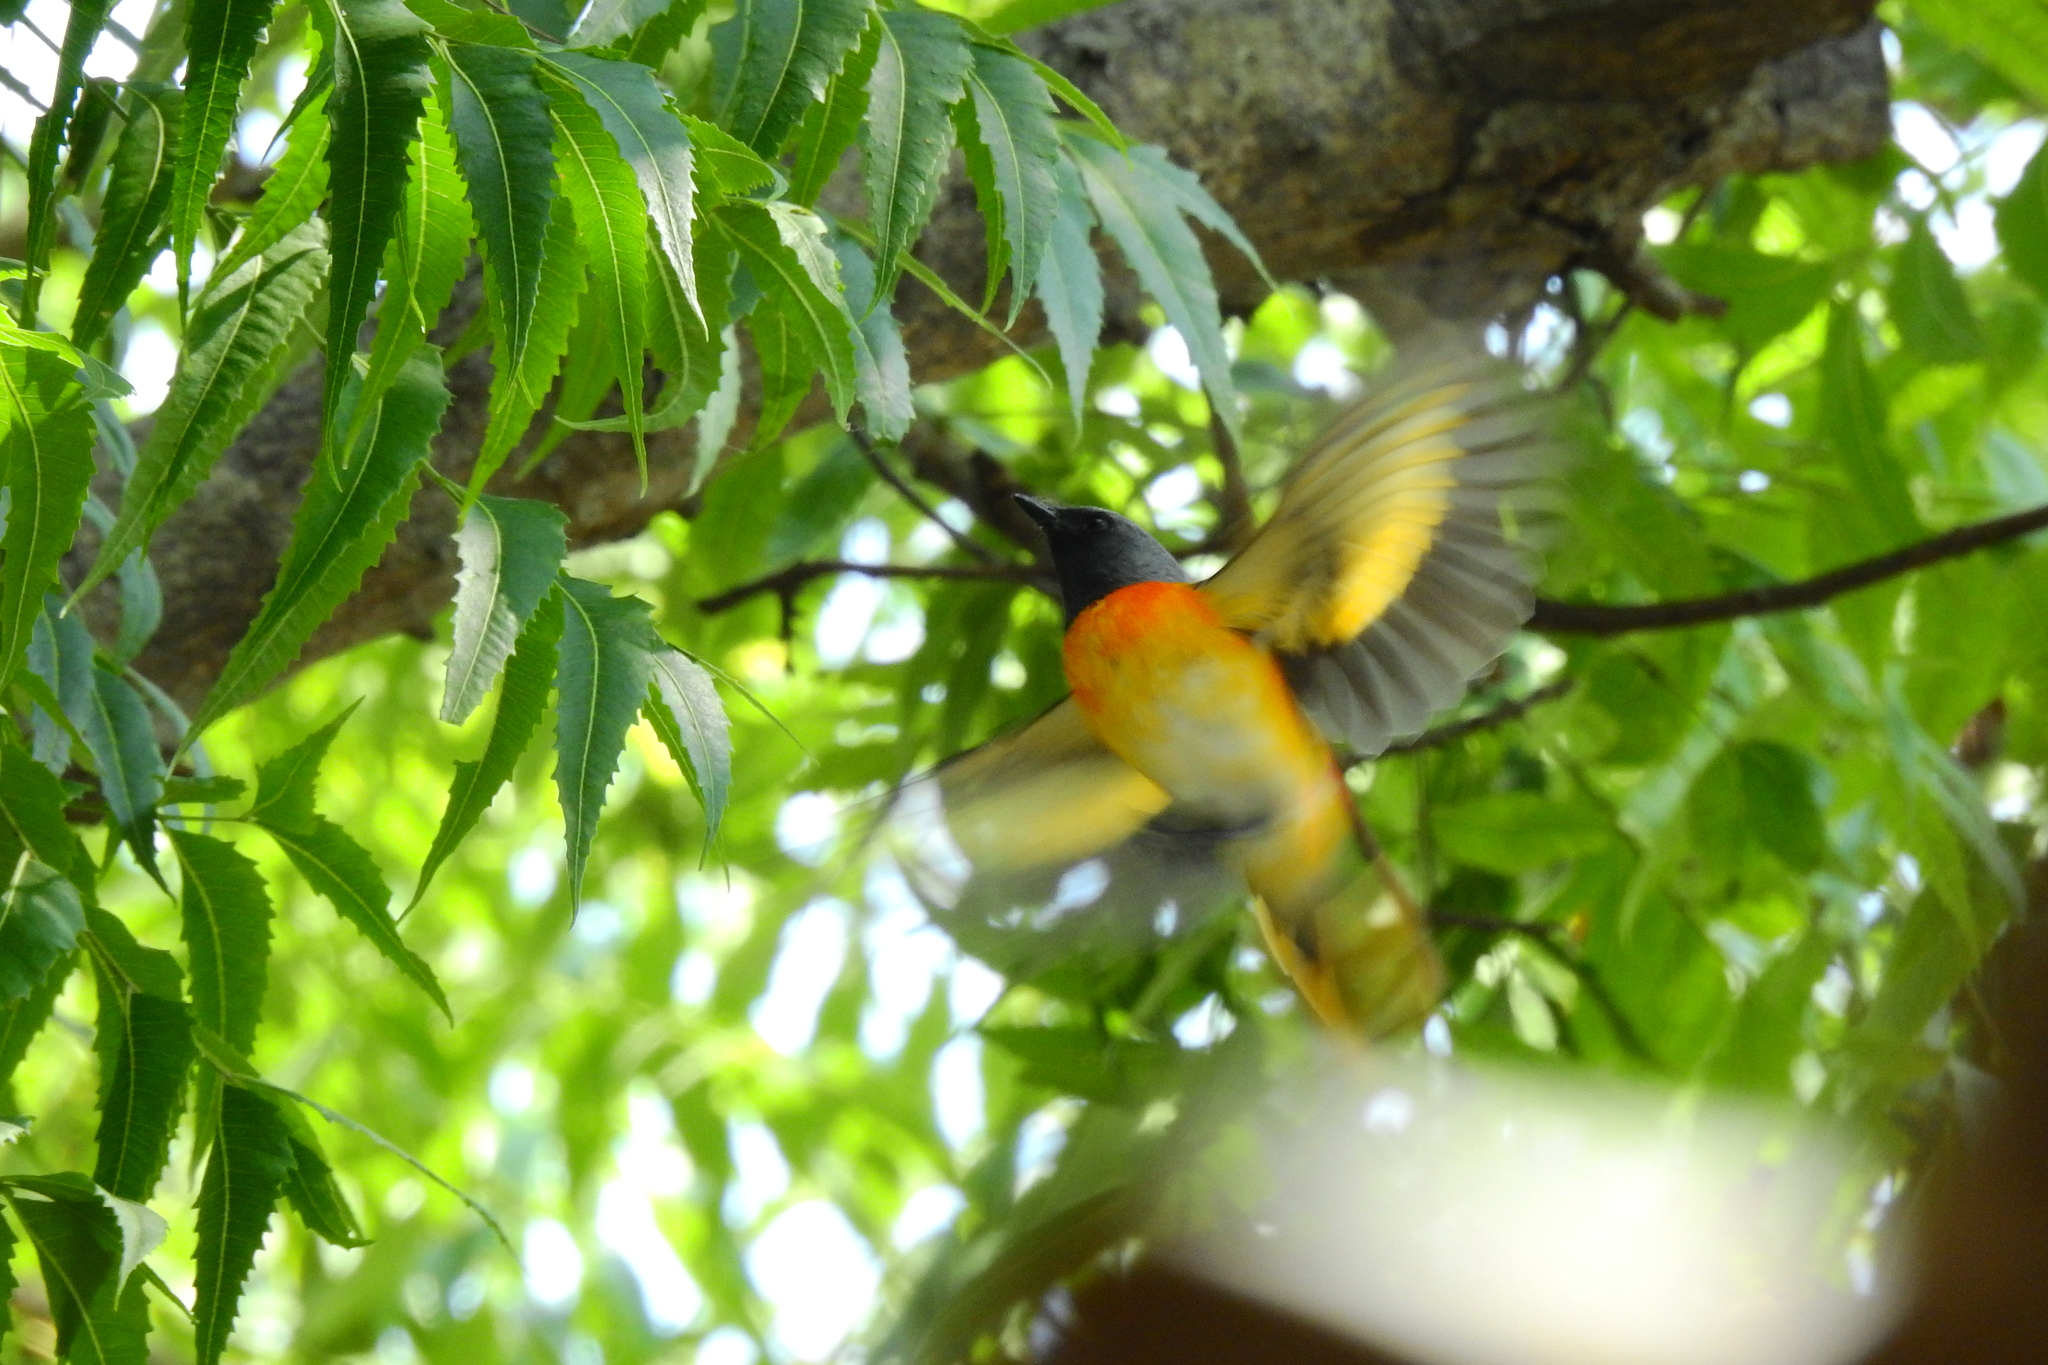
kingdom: Animalia
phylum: Chordata
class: Aves
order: Passeriformes
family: Campephagidae
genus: Pericrocotus
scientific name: Pericrocotus cinnamomeus
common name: Small minivet
